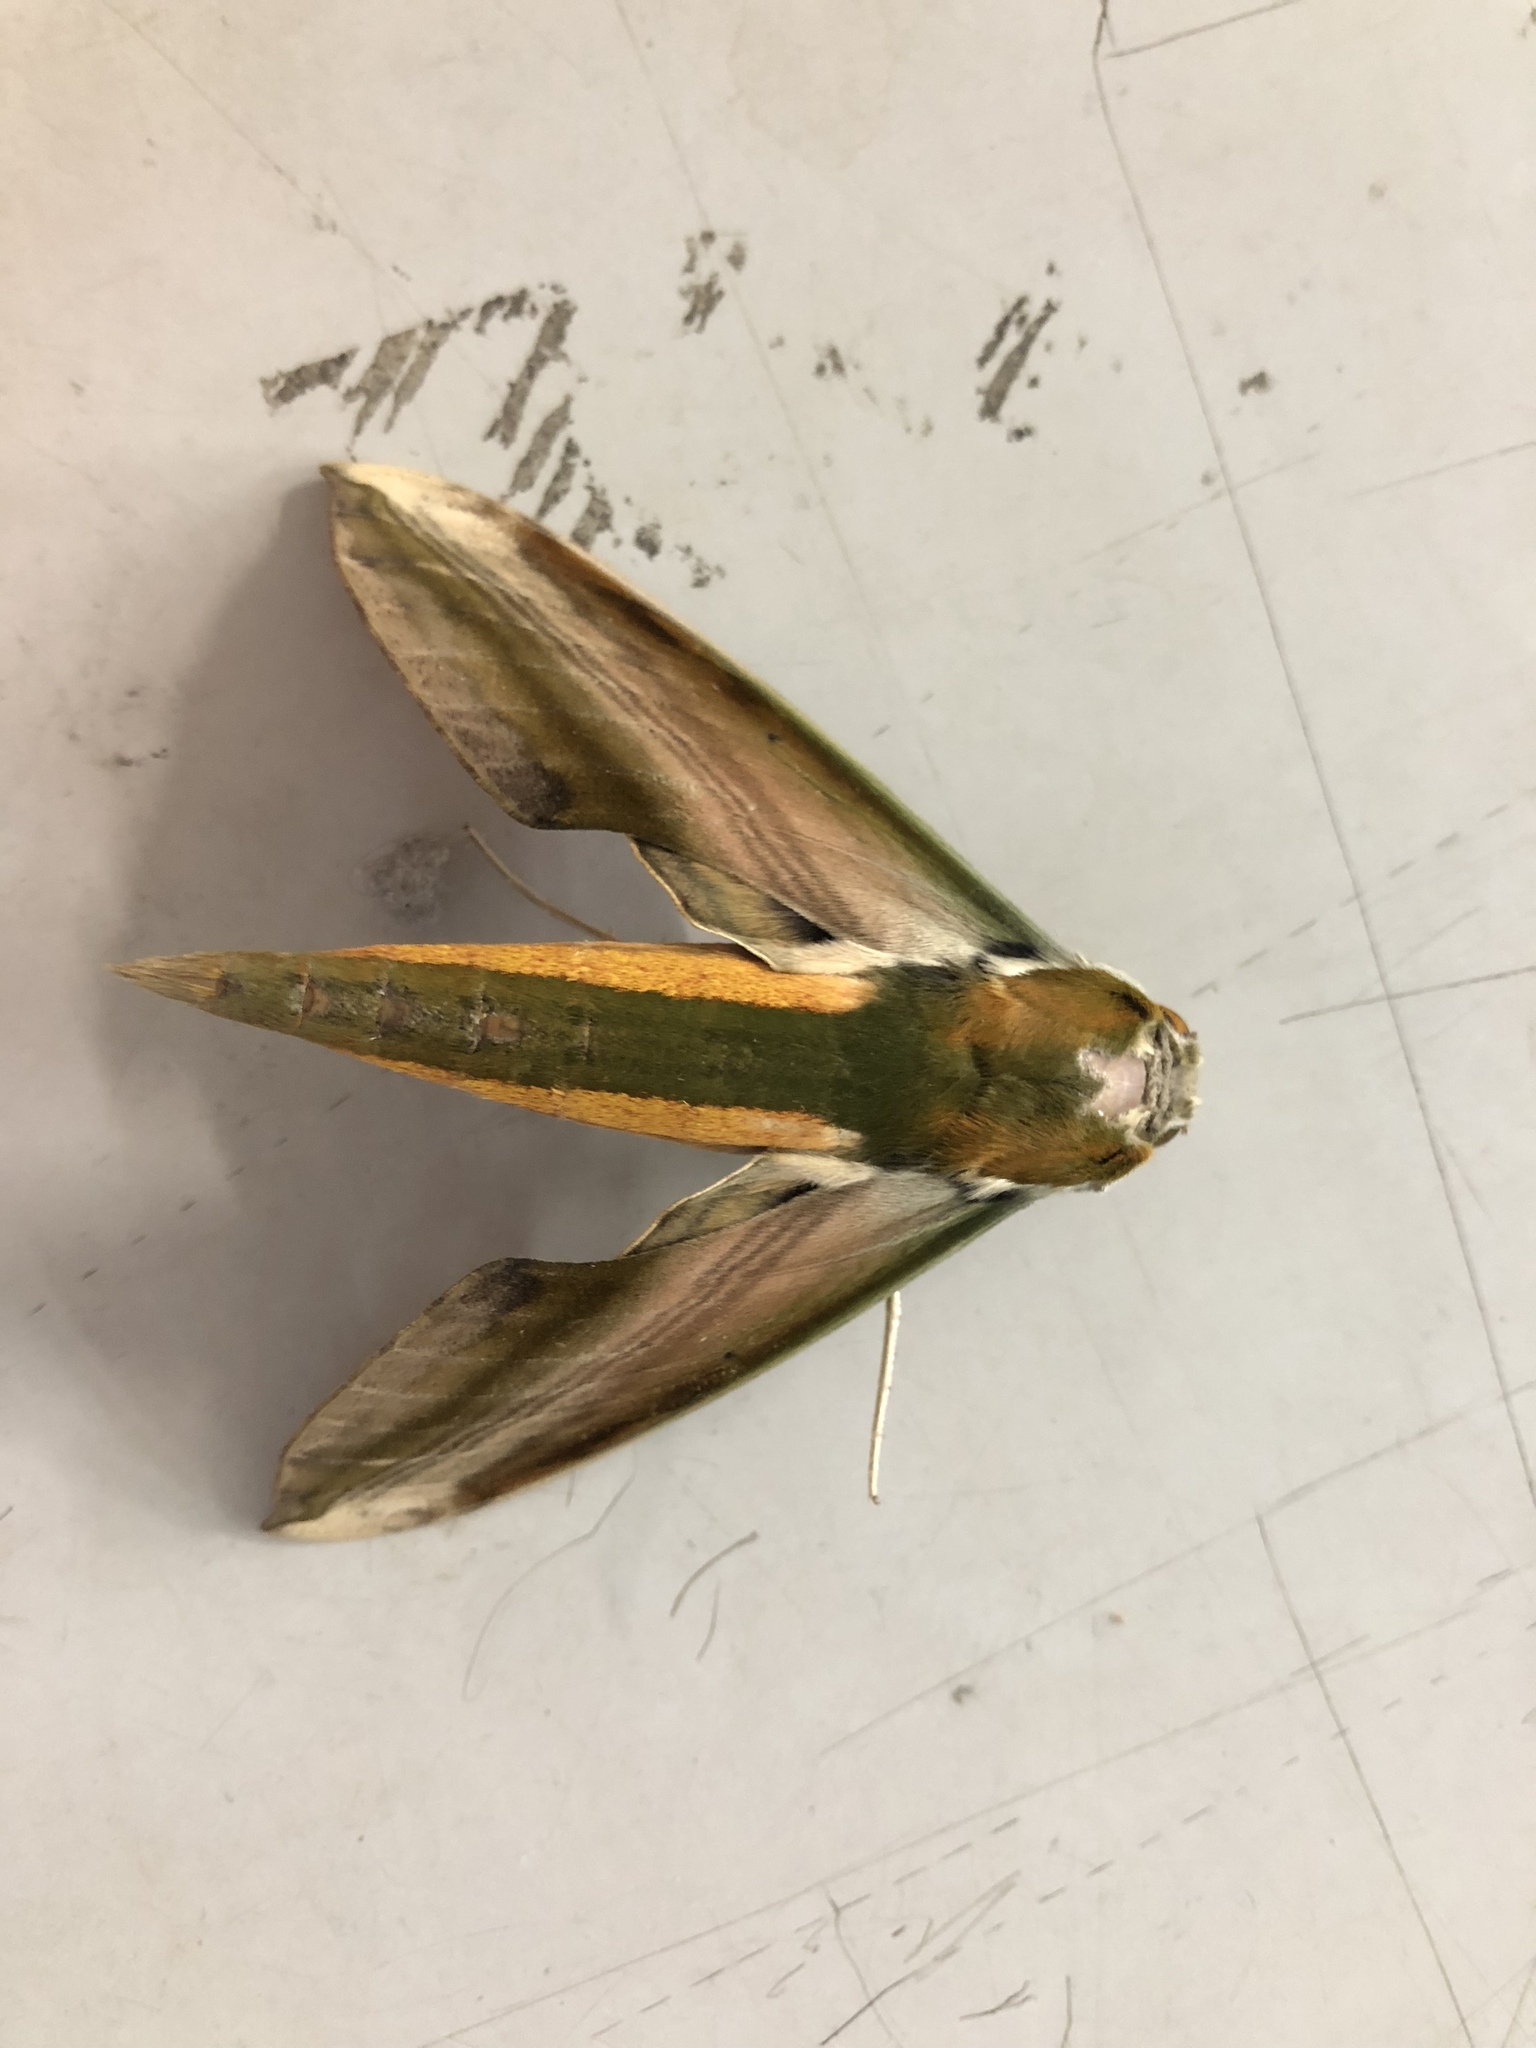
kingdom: Animalia
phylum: Arthropoda
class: Insecta
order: Lepidoptera
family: Sphingidae
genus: Theretra
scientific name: Theretra nessus
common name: Yam hawk moth
